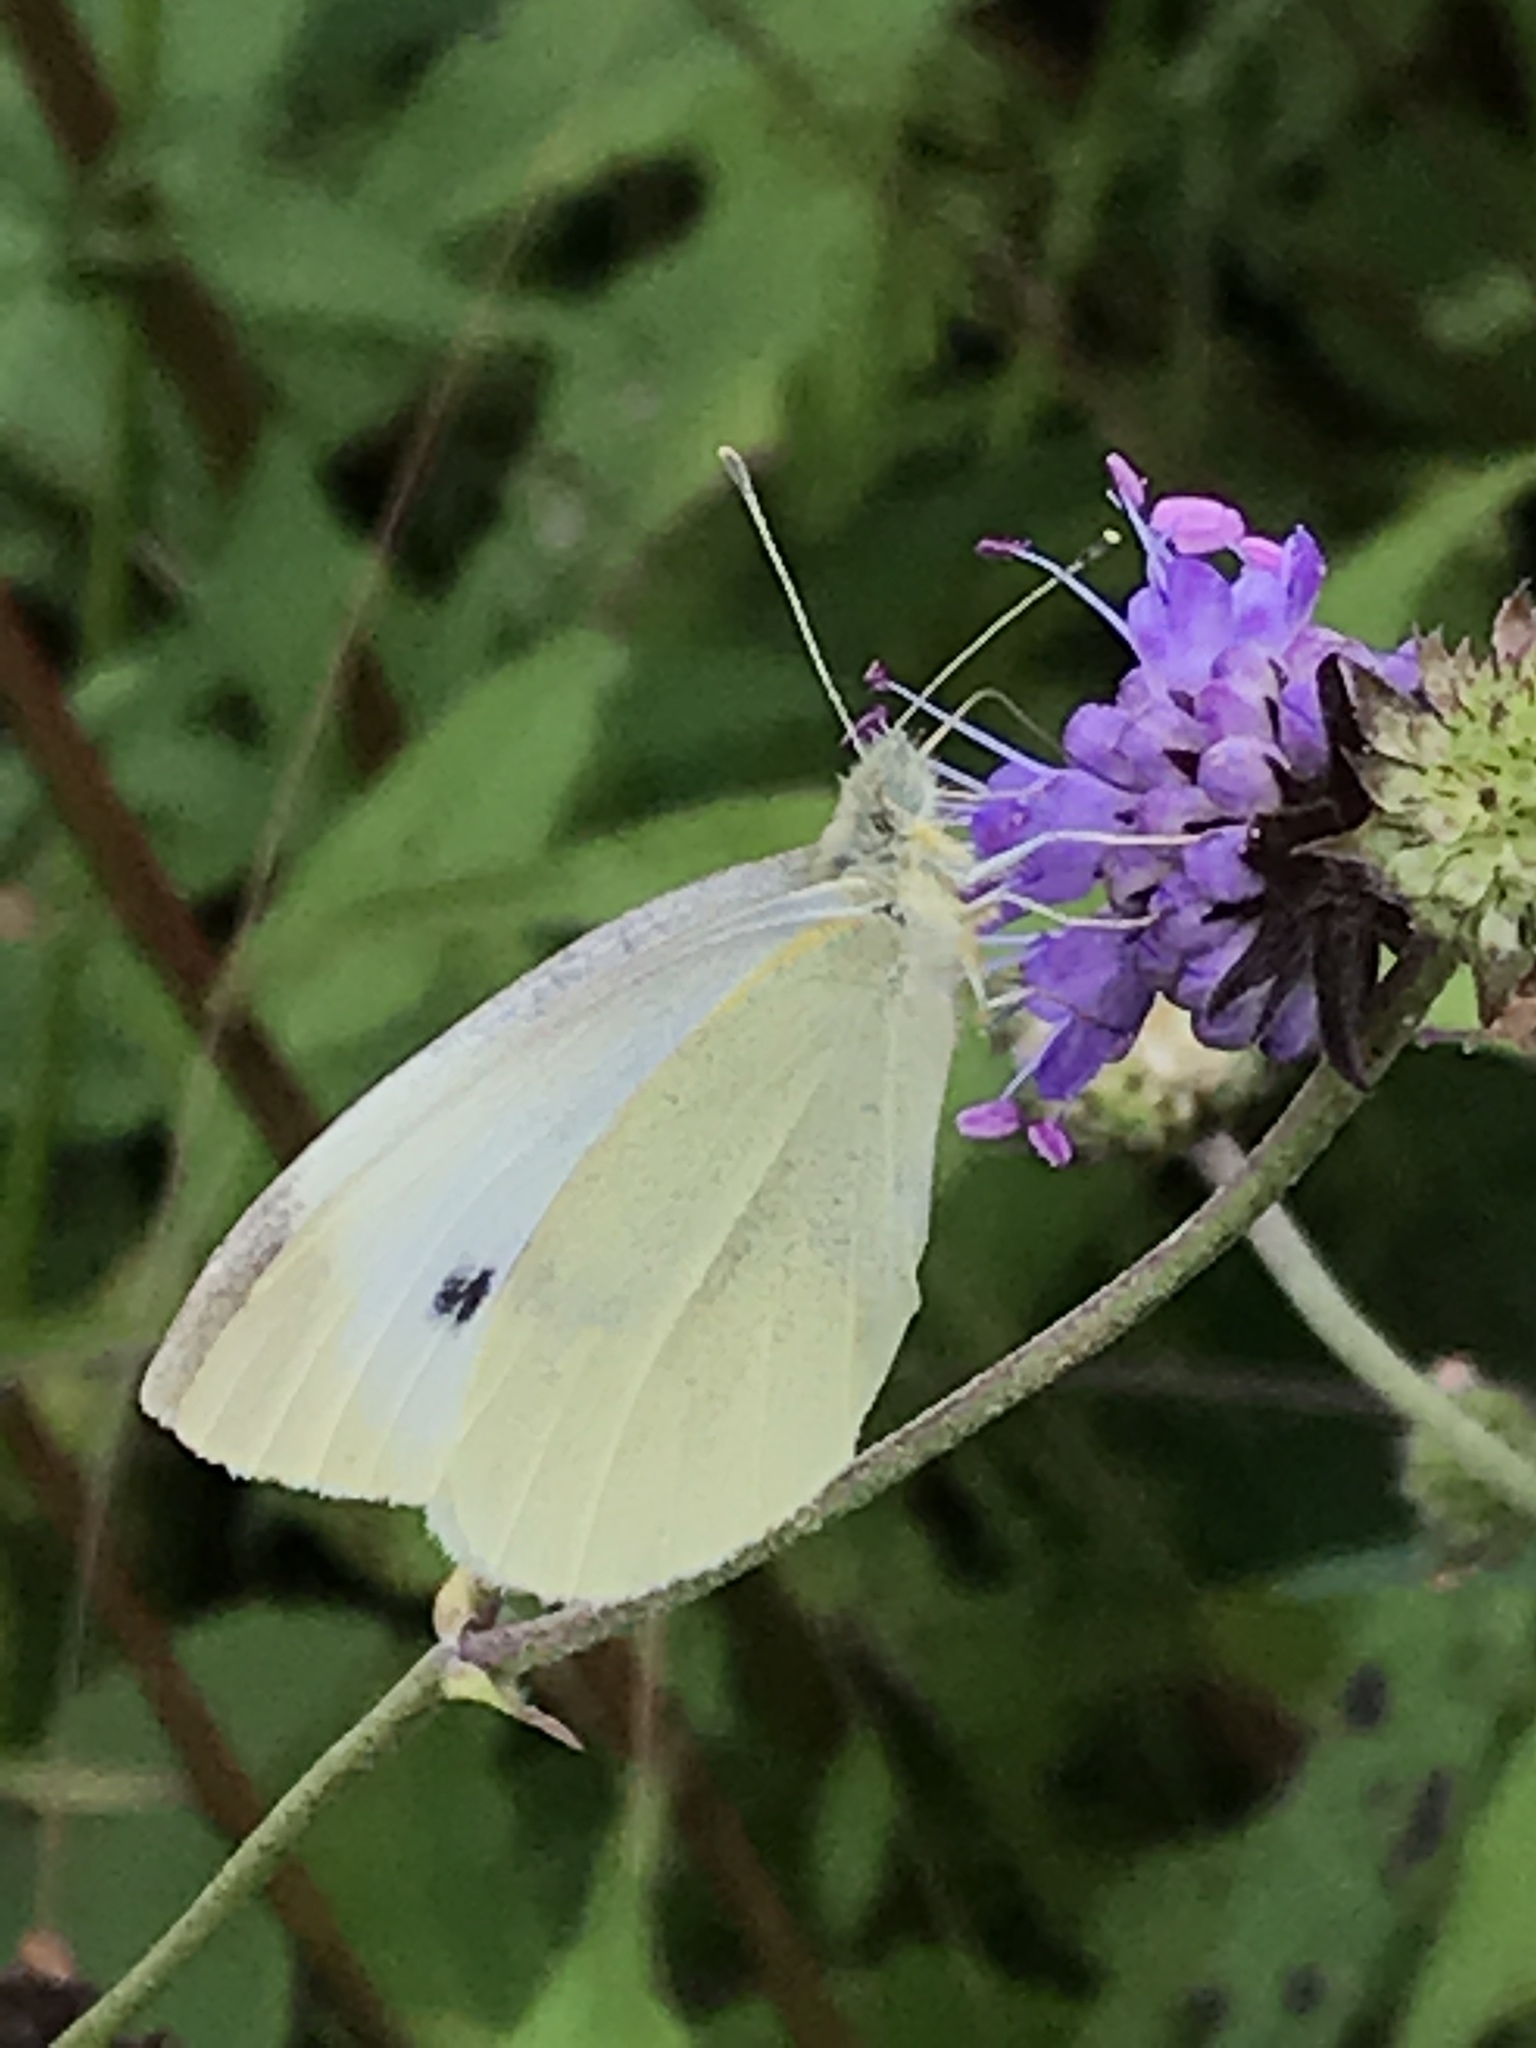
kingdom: Animalia
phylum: Arthropoda
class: Insecta
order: Lepidoptera
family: Pieridae
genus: Pieris
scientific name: Pieris rapae
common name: Small white
